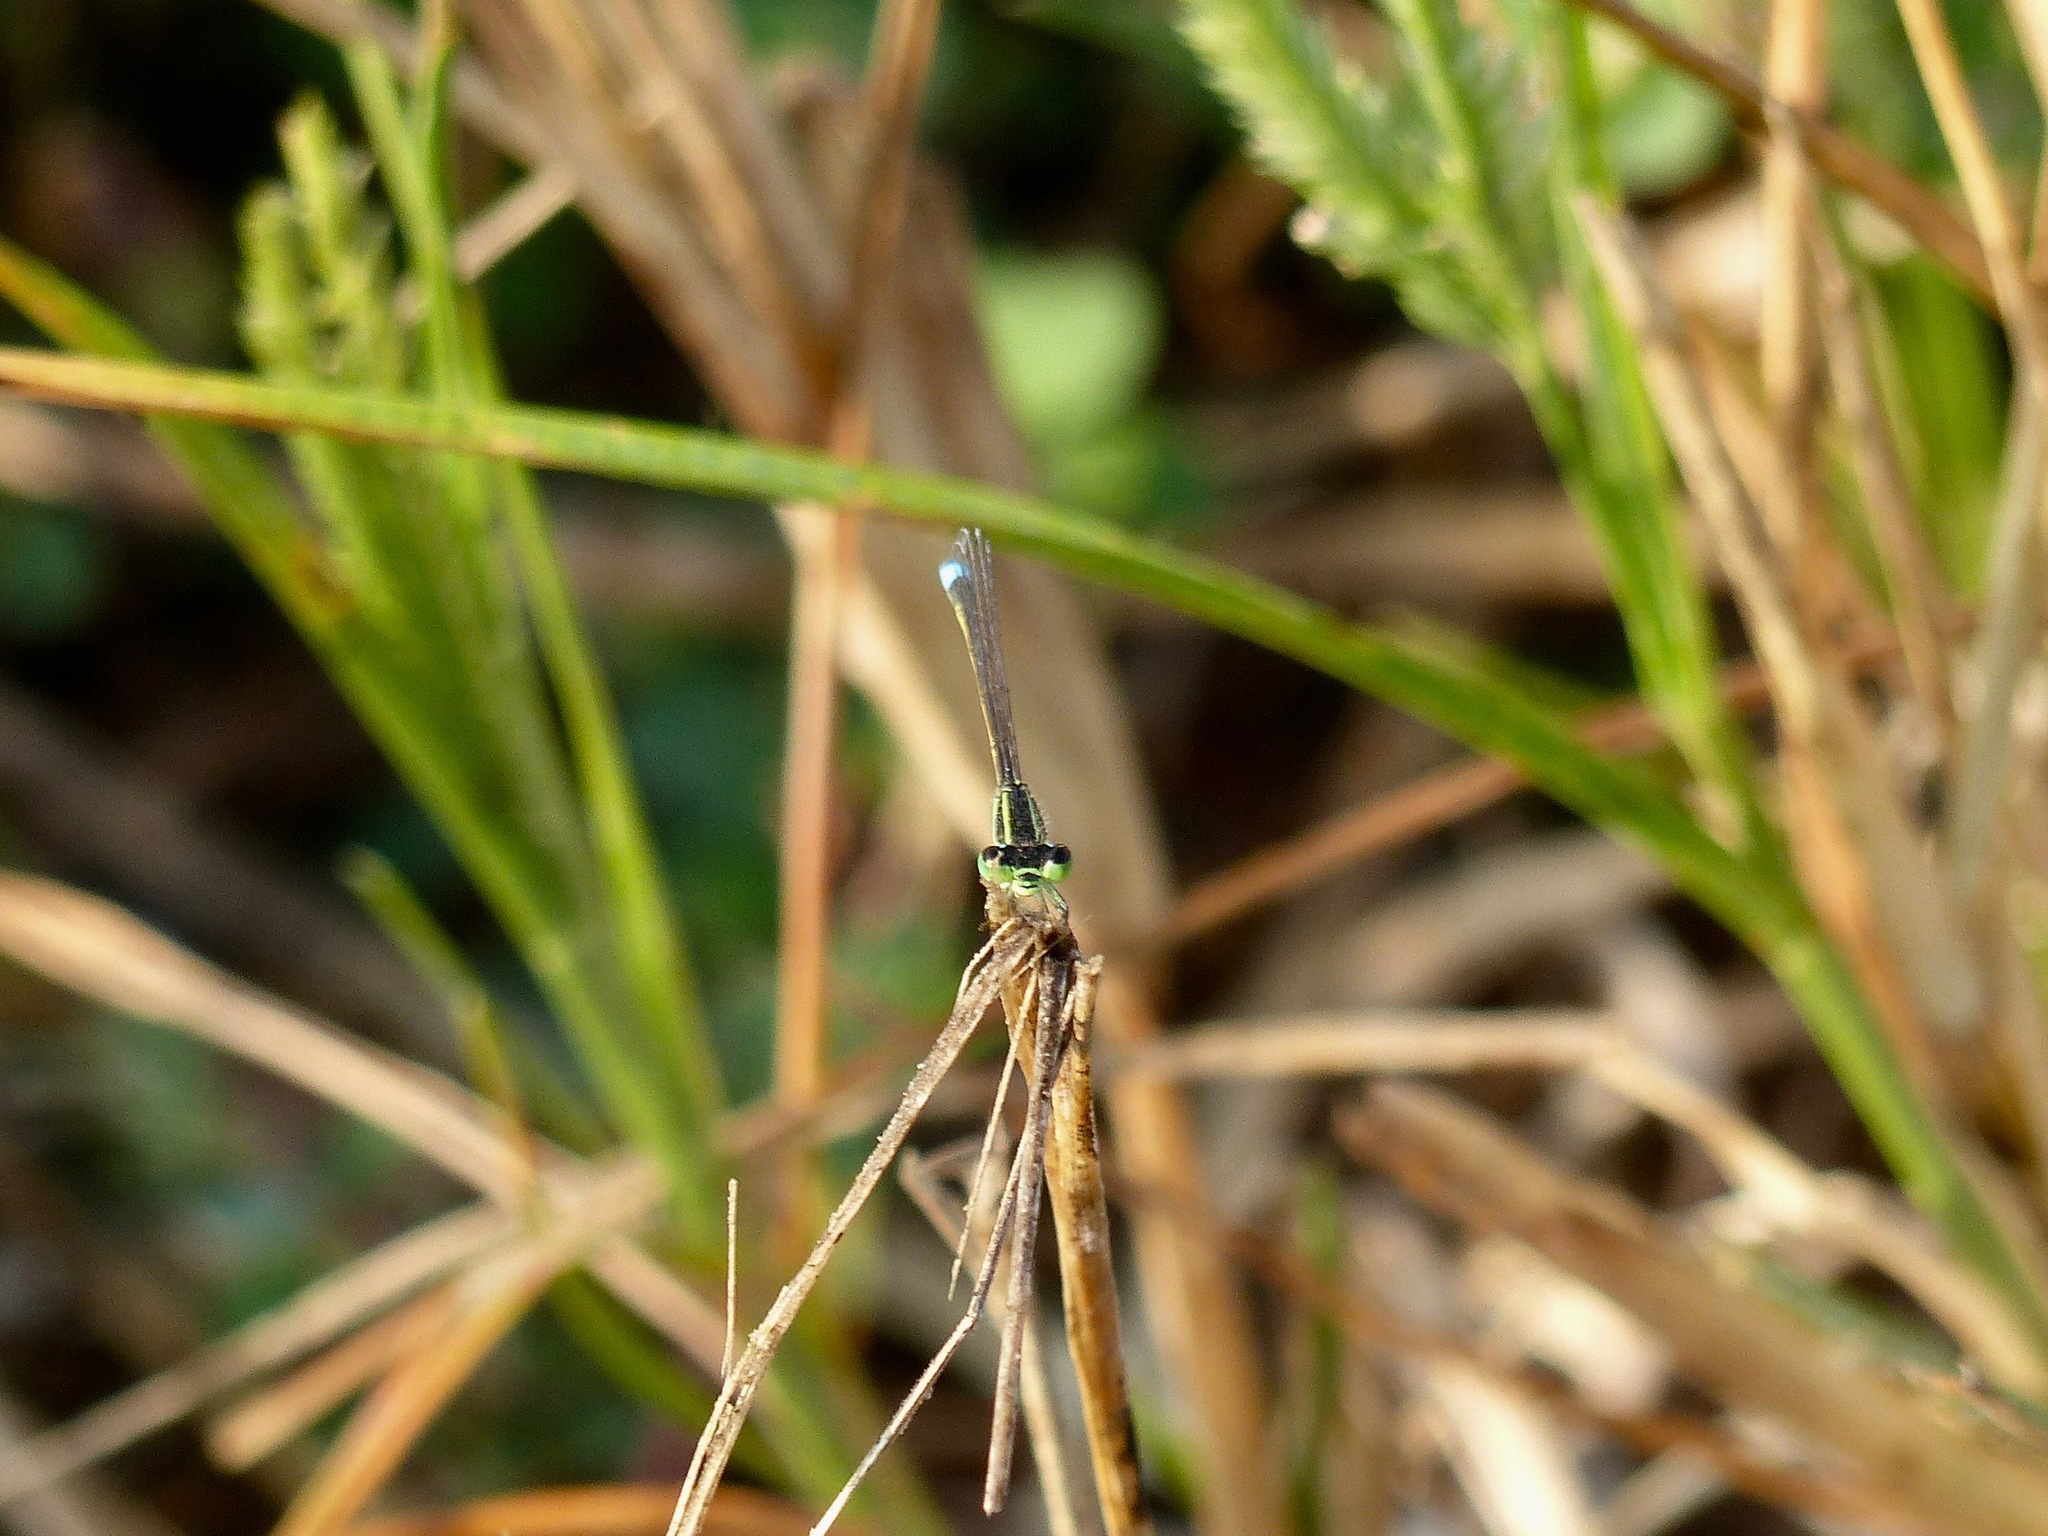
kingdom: Animalia
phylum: Arthropoda
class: Insecta
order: Odonata
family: Coenagrionidae
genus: Ischnura
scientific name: Ischnura ramburii
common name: Rambur's forktail
